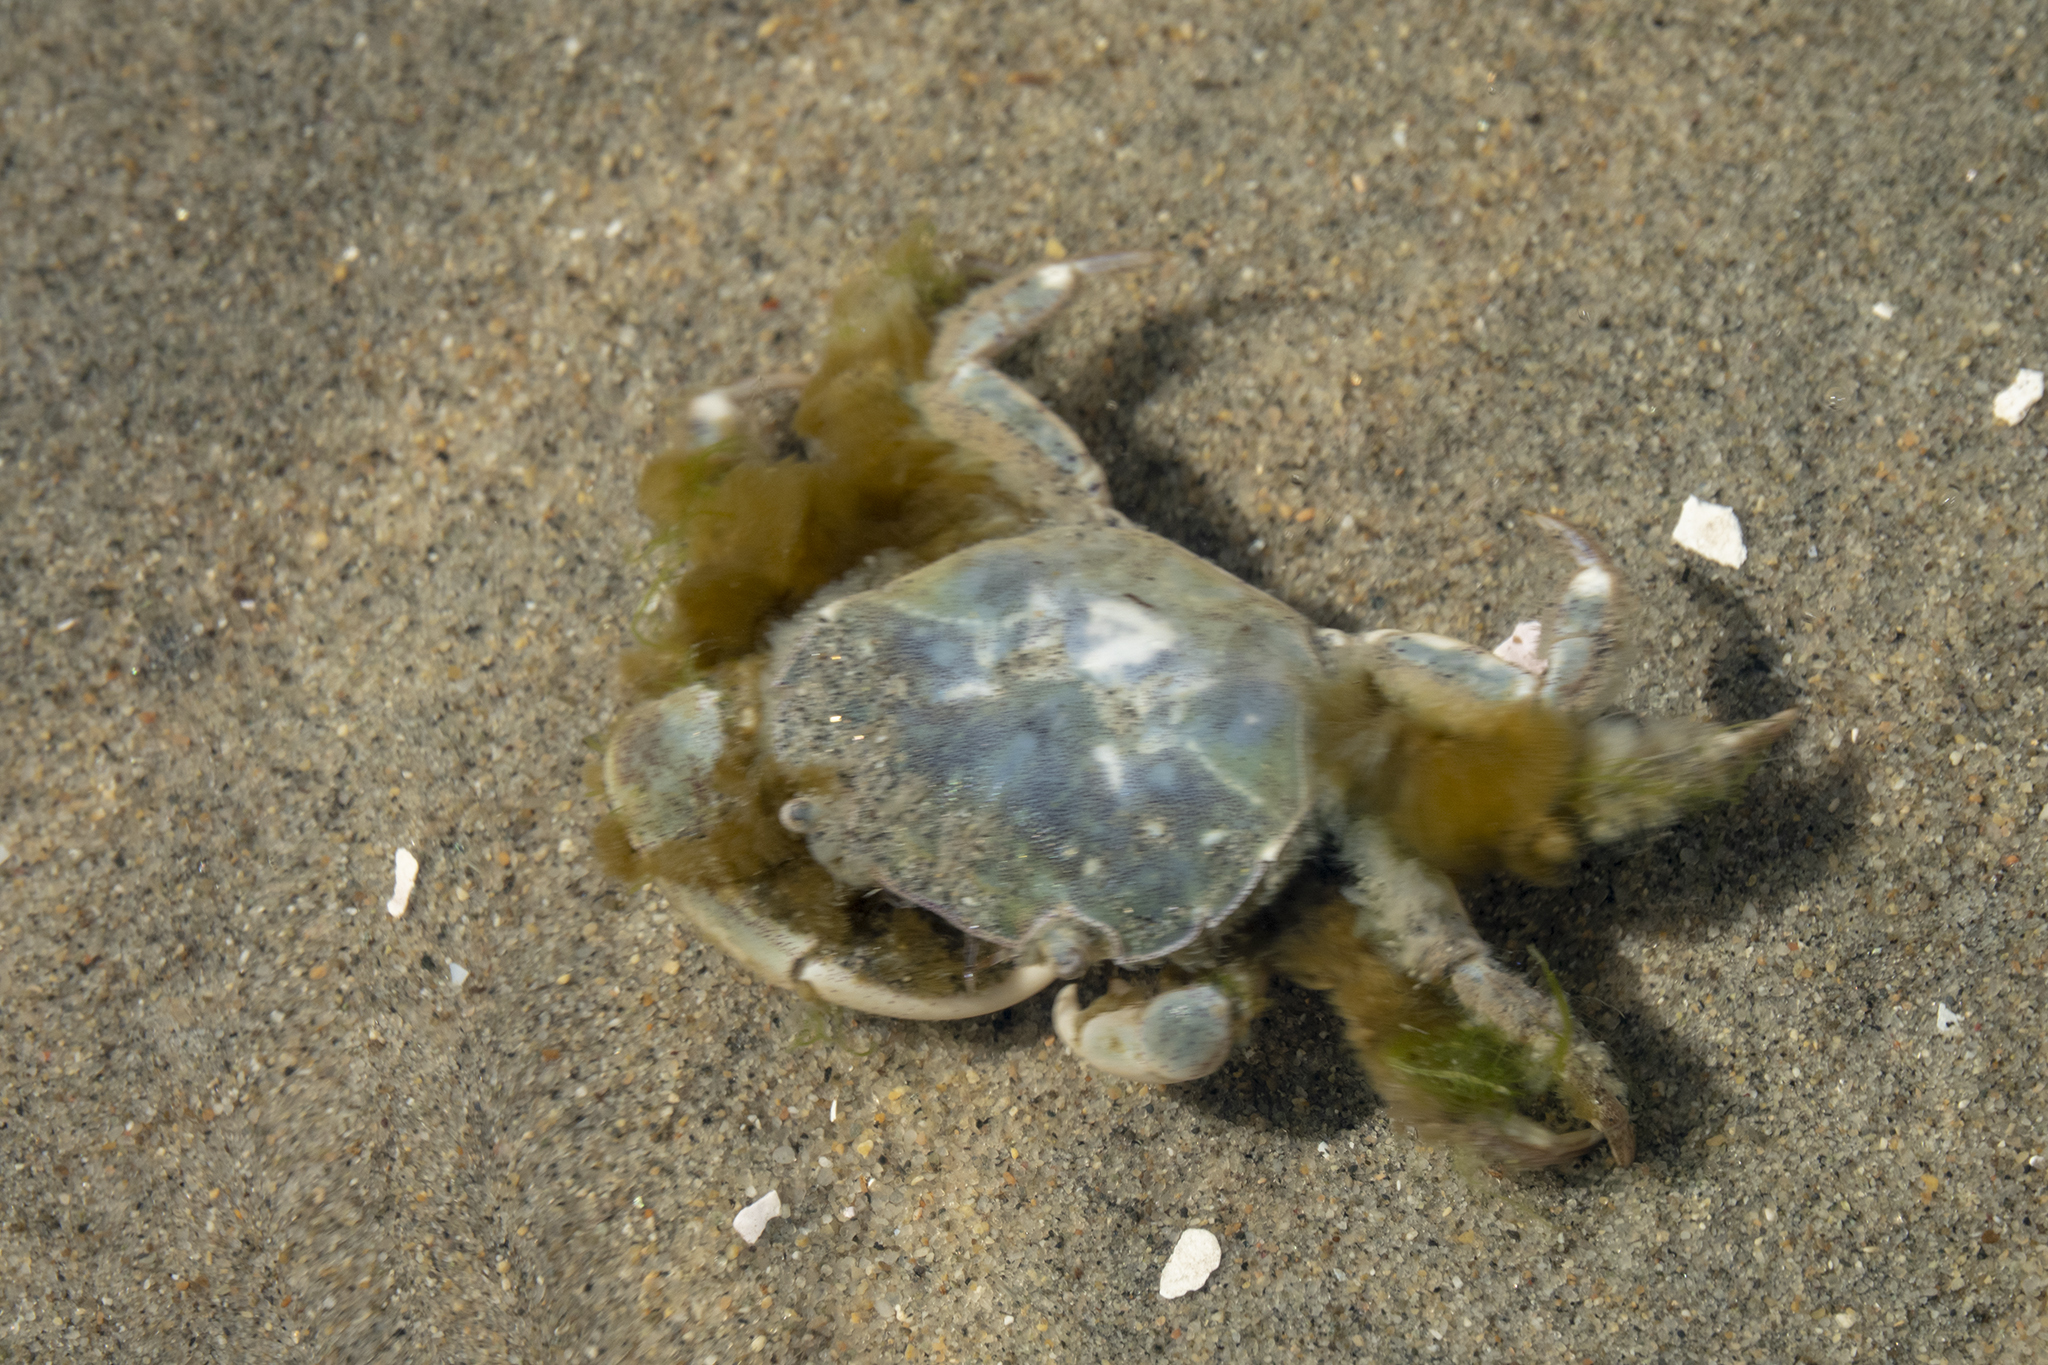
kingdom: Animalia
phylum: Arthropoda
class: Malacostraca
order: Decapoda
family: Varunidae
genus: Hemigrapsus
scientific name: Hemigrapsus crenulatus
